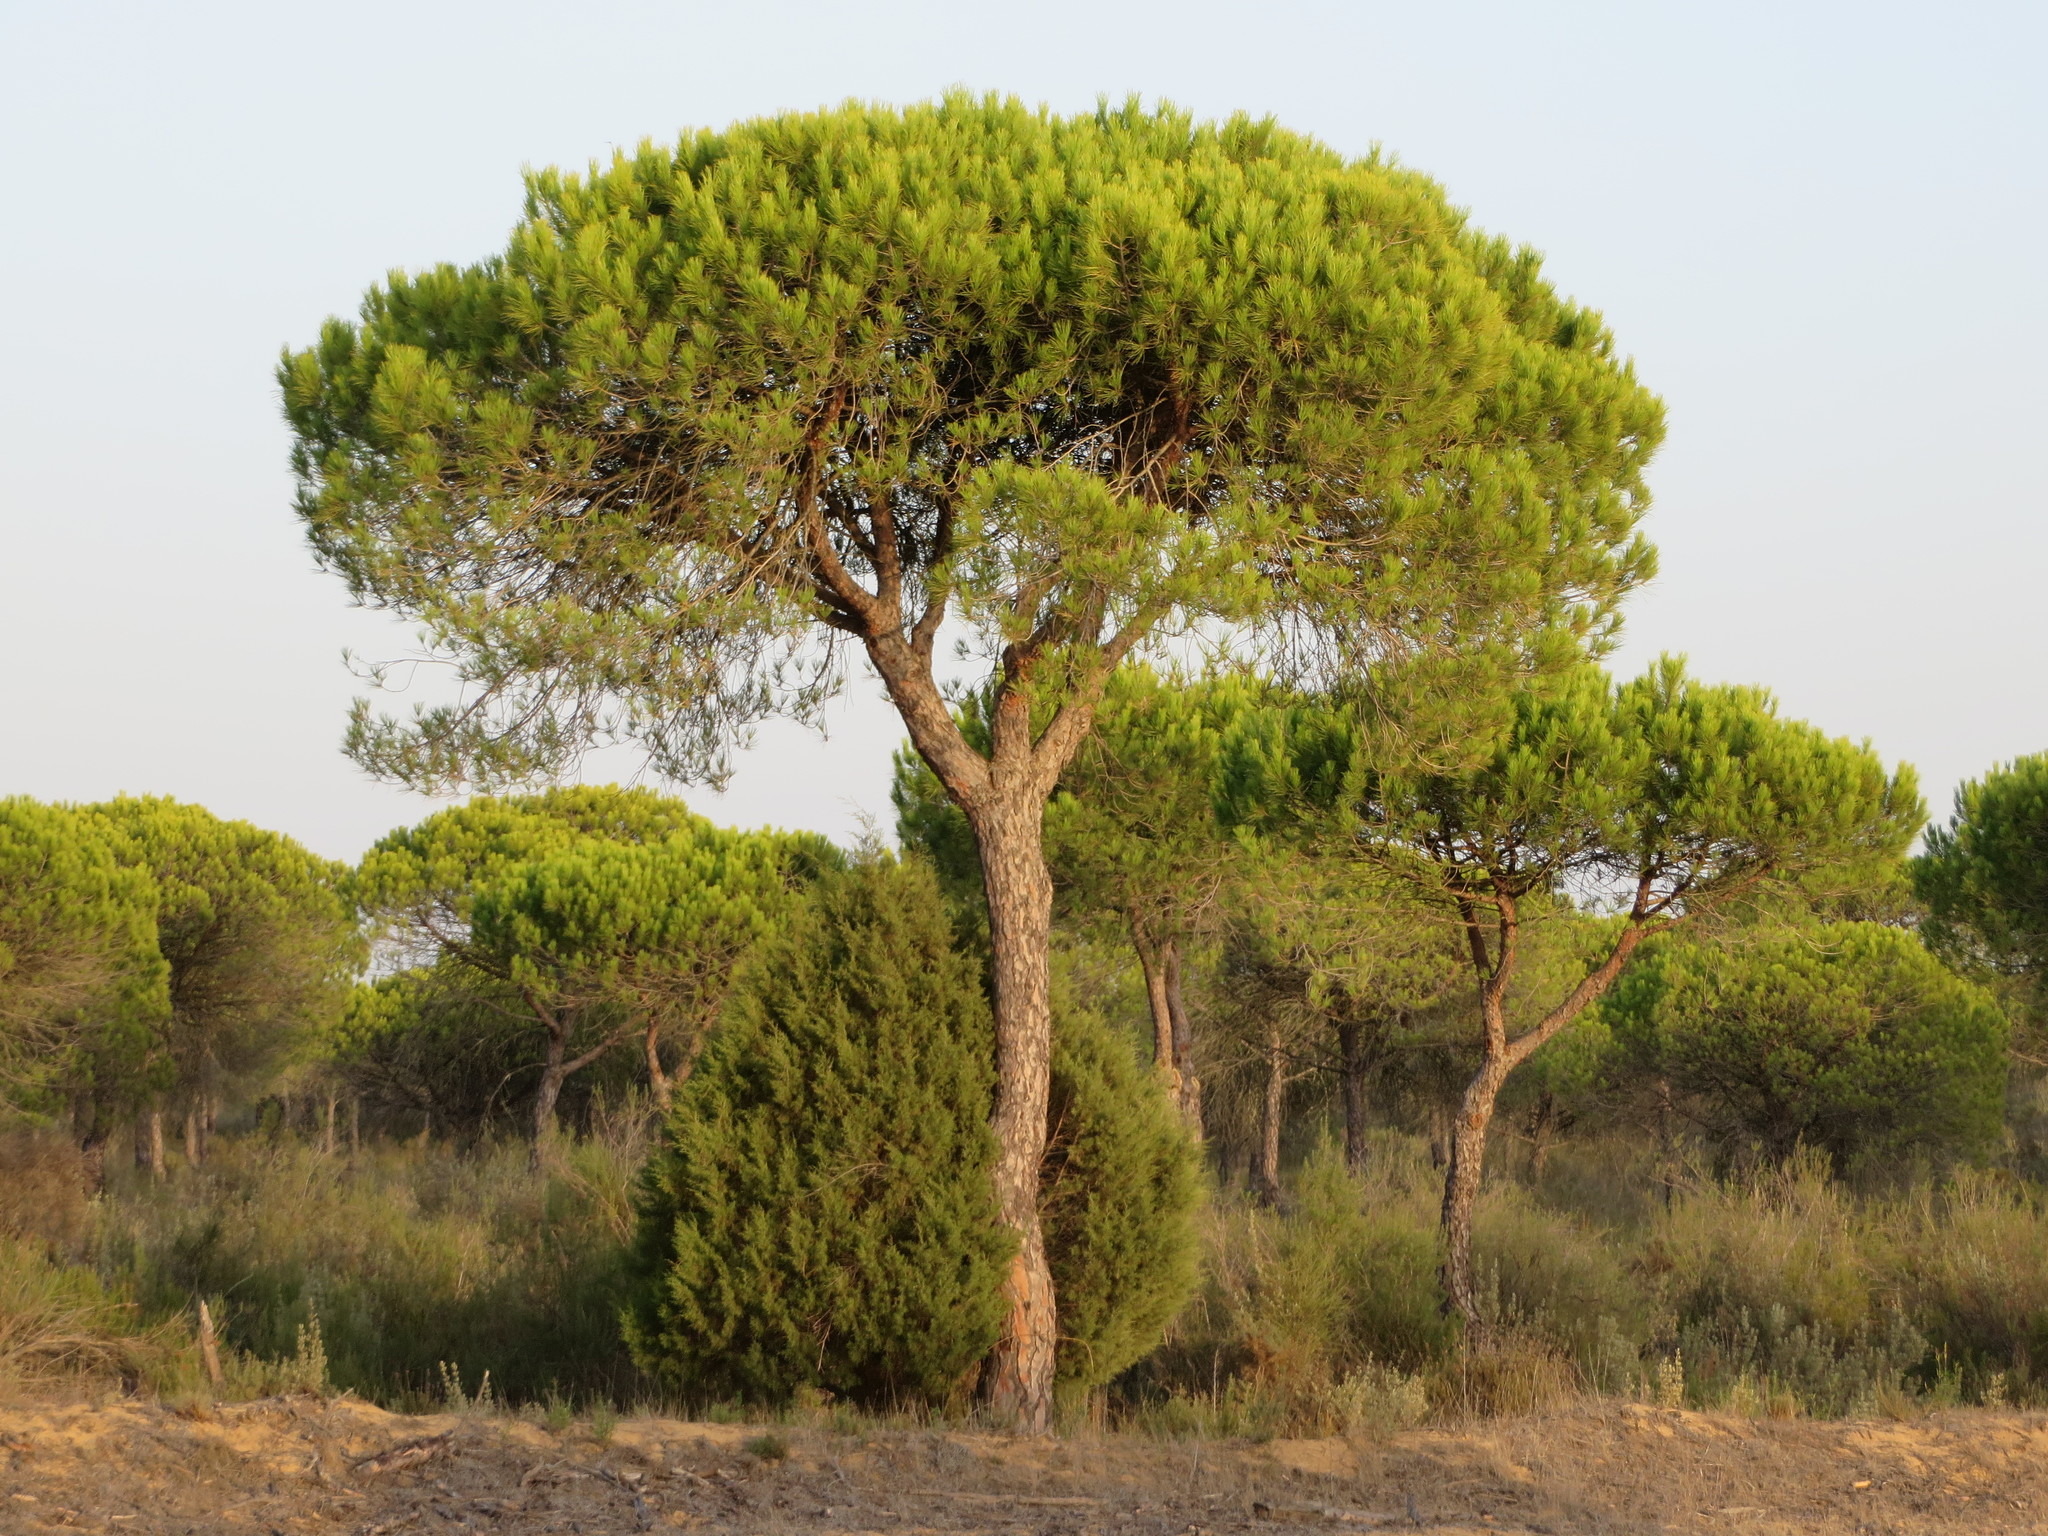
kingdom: Plantae
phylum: Tracheophyta
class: Pinopsida
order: Pinales
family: Pinaceae
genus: Pinus
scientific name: Pinus pinea
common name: Italian stone pine
